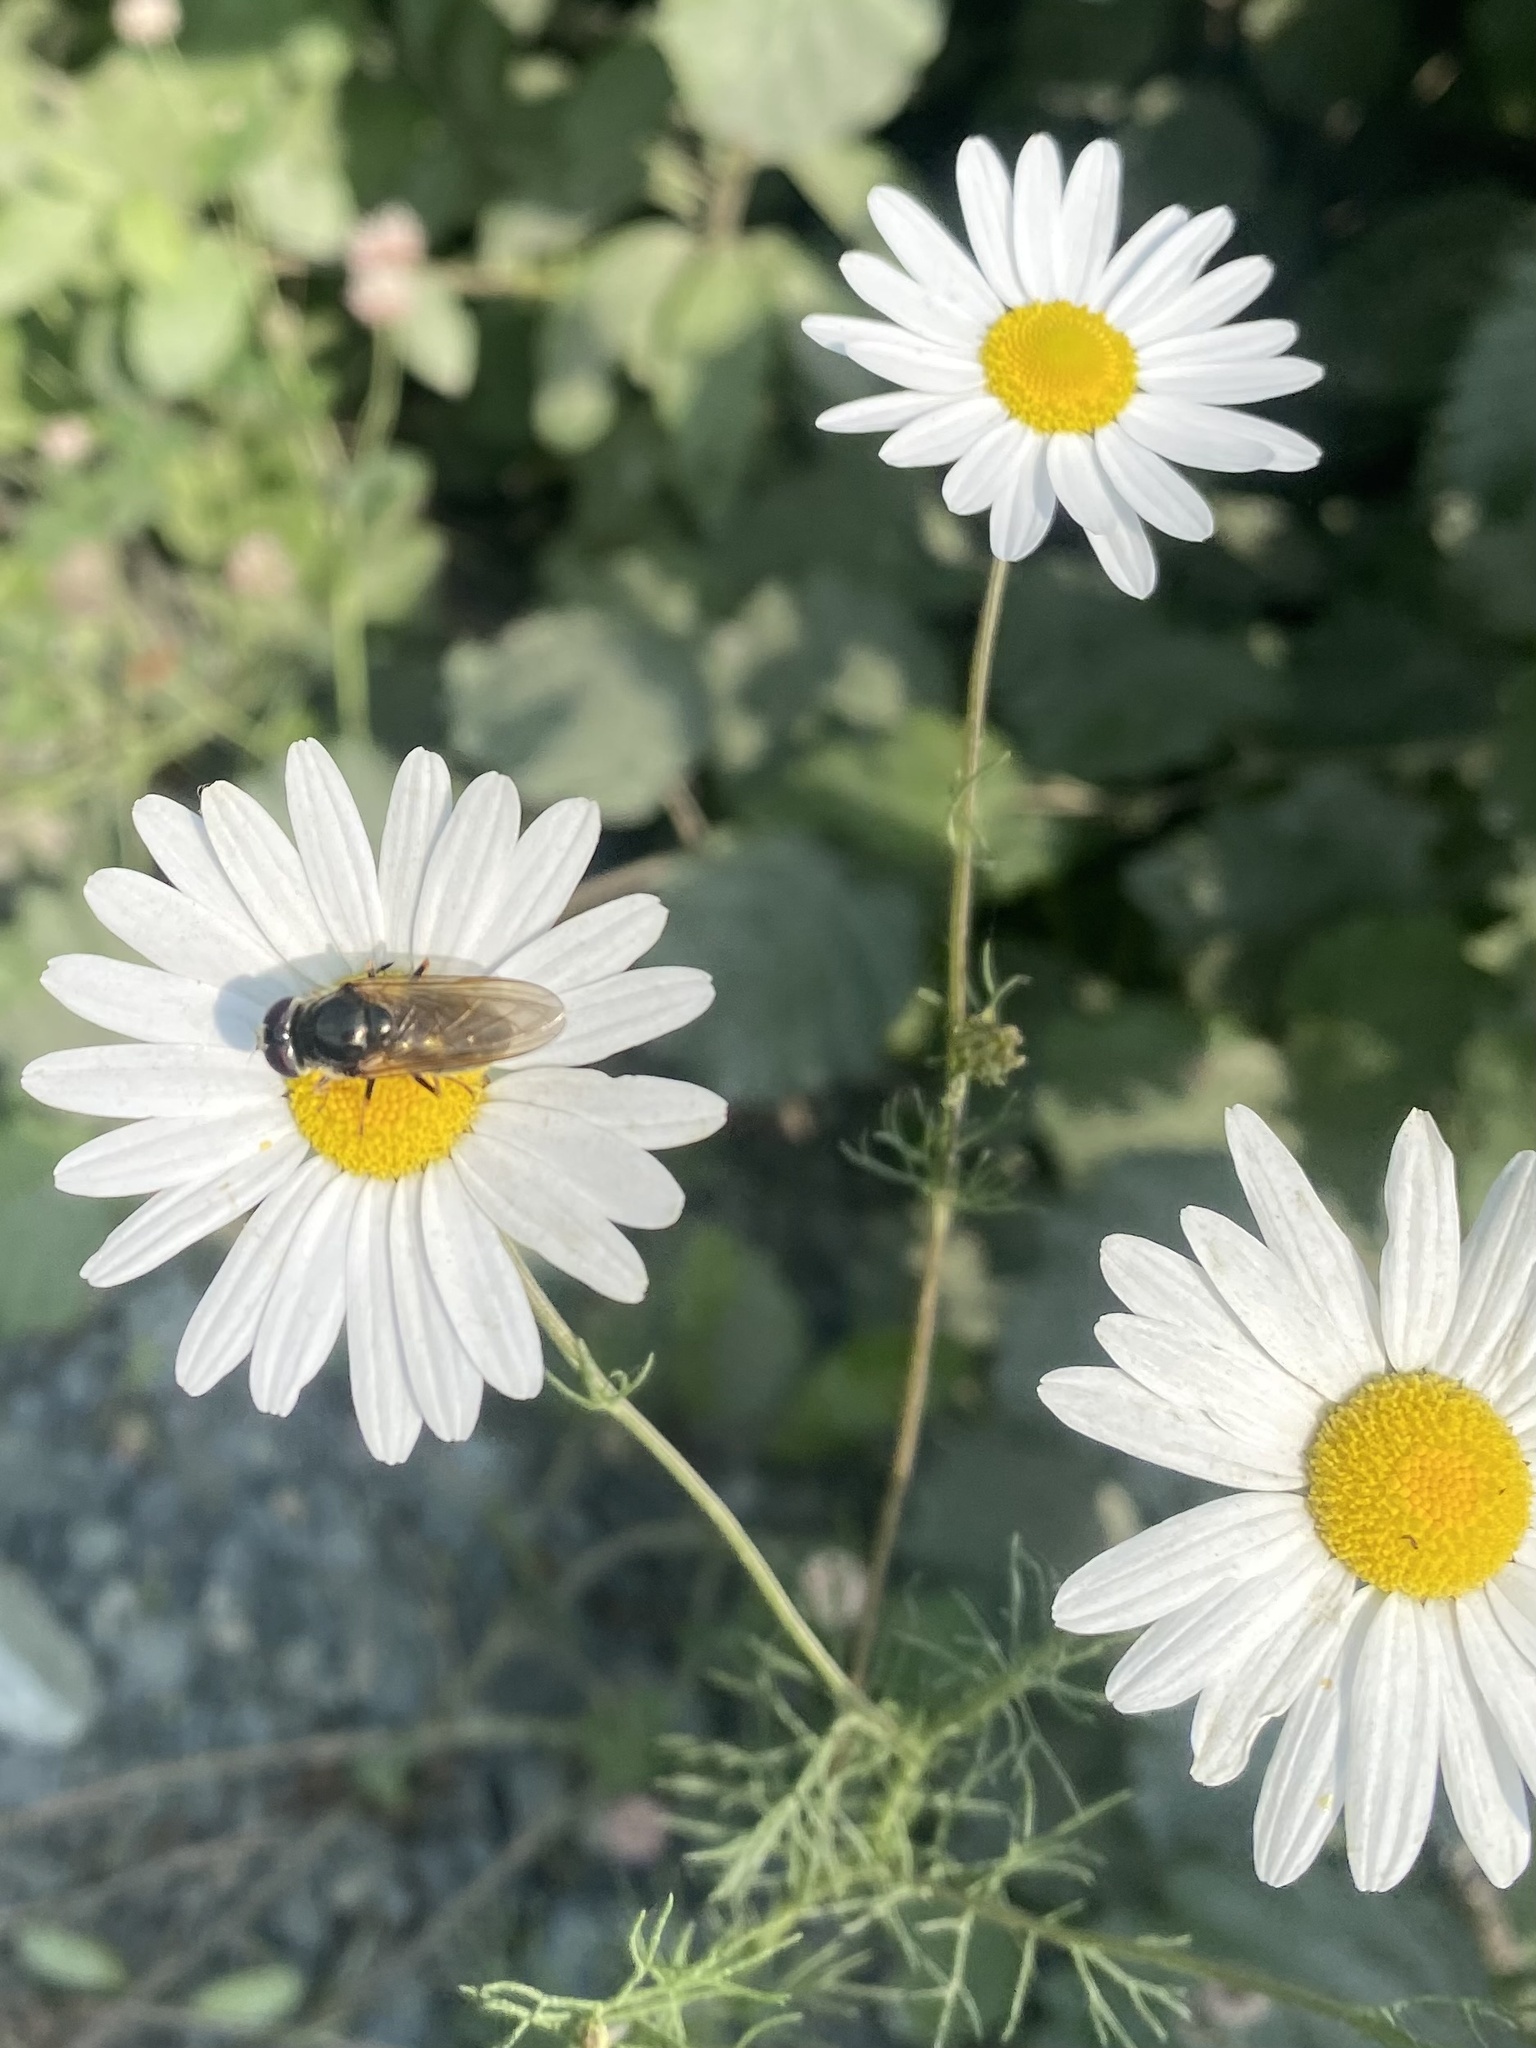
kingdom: Plantae
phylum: Tracheophyta
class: Magnoliopsida
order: Asterales
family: Asteraceae
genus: Tripleurospermum
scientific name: Tripleurospermum inodorum
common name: Scentless mayweed
